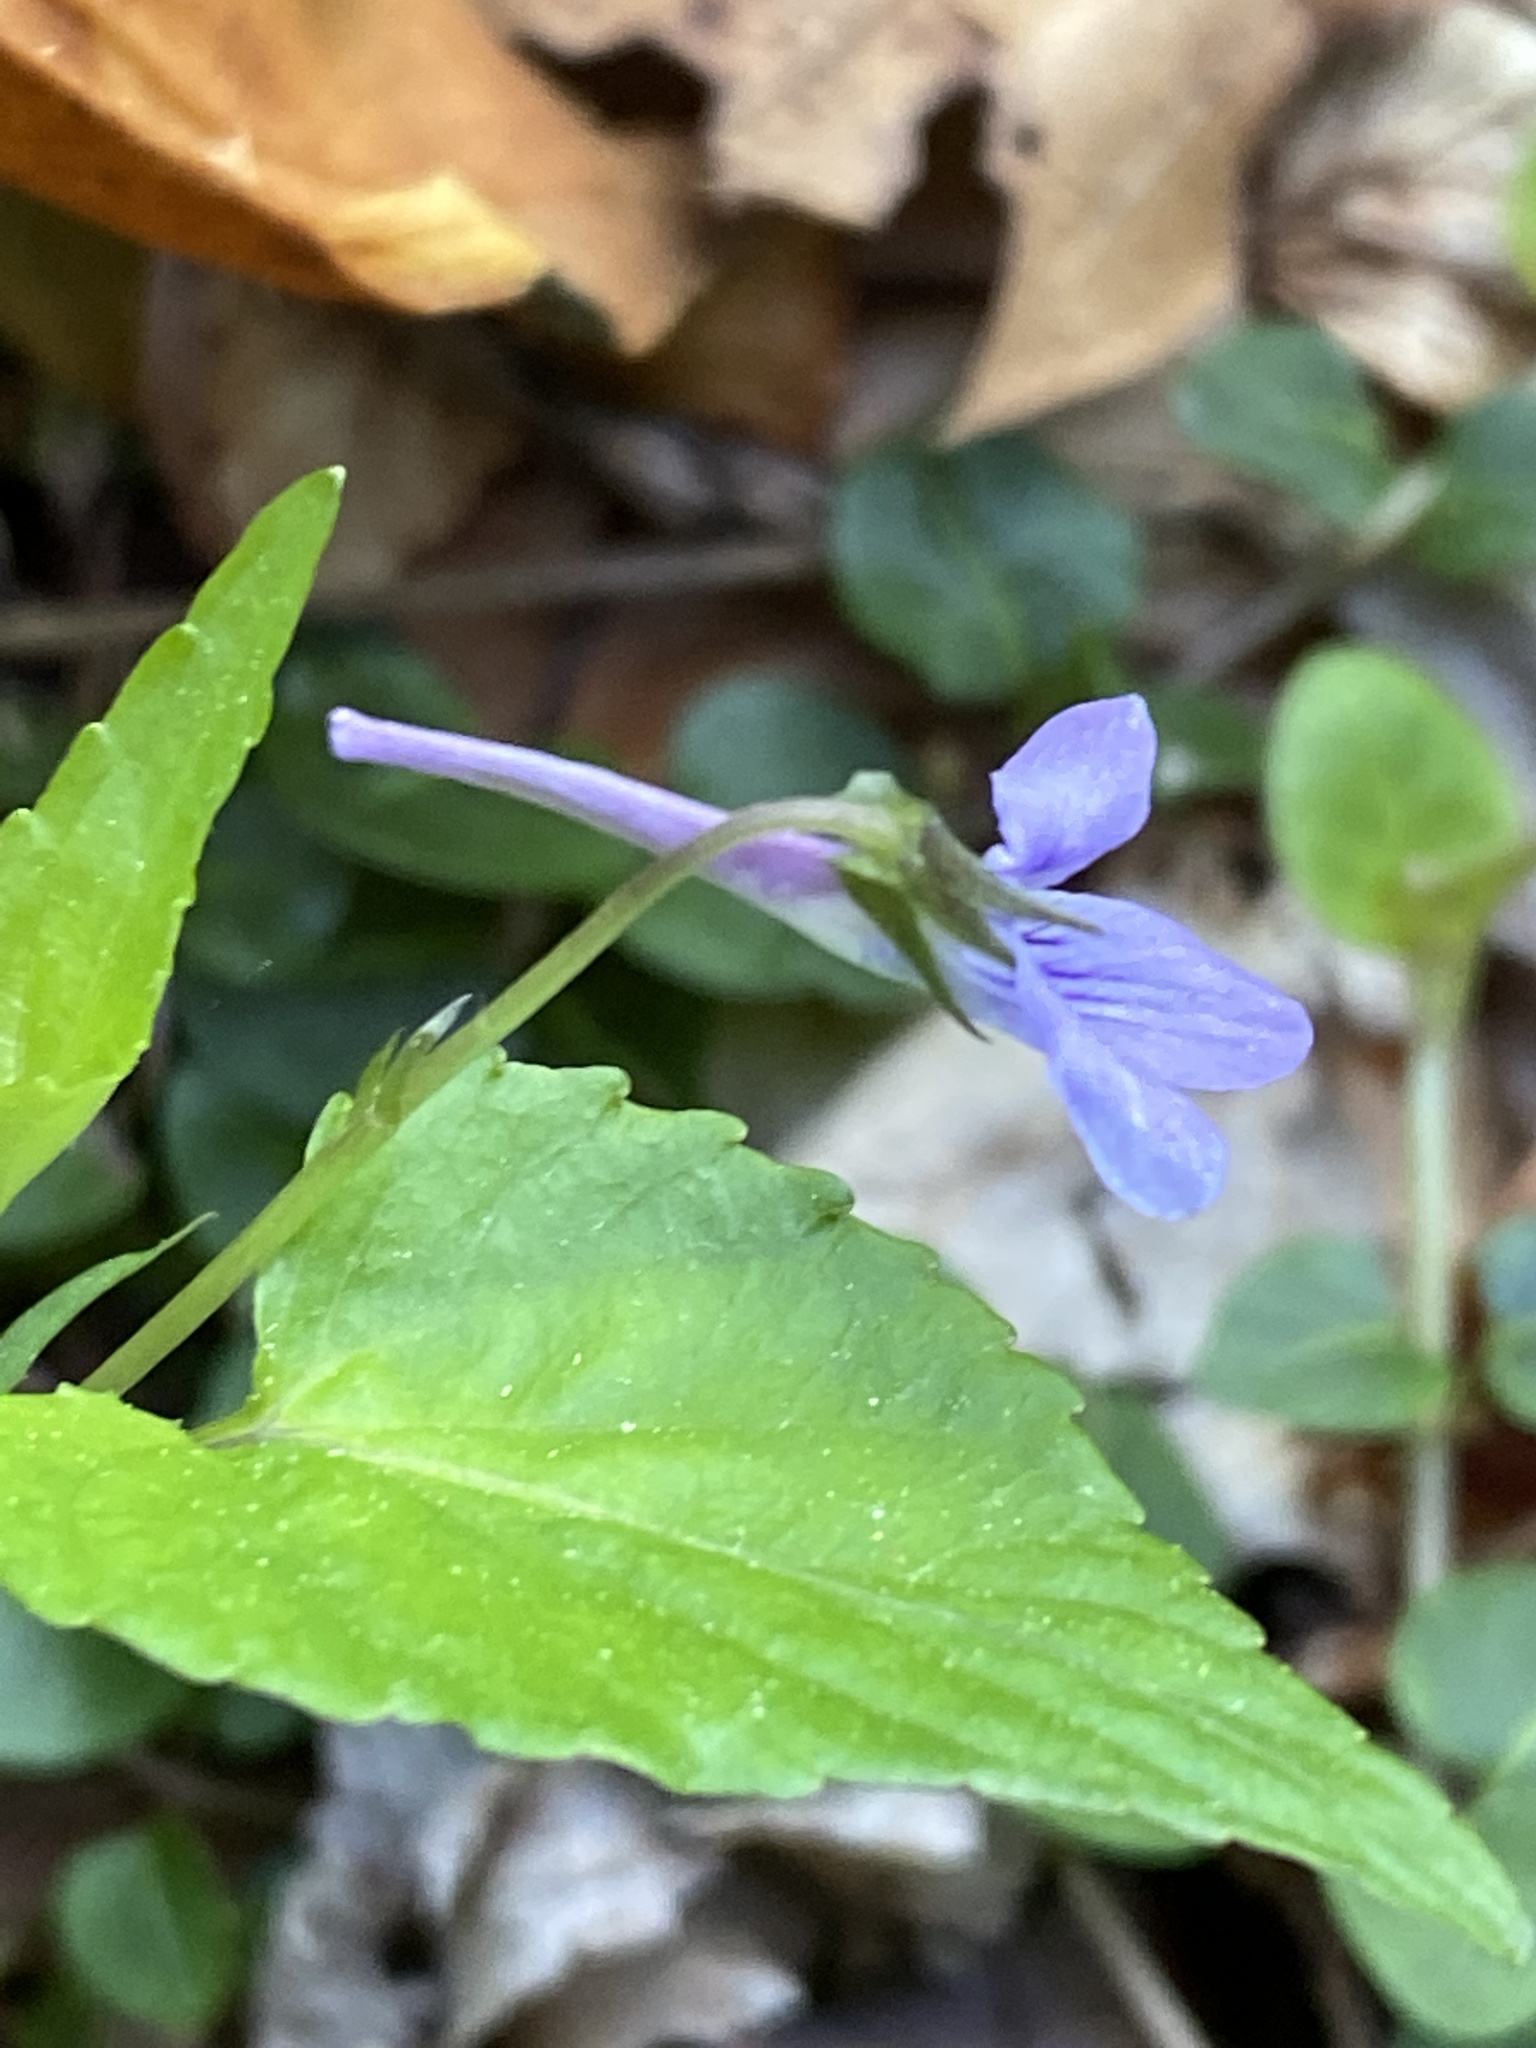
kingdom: Plantae
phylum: Tracheophyta
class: Magnoliopsida
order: Malpighiales
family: Violaceae
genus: Viola
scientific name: Viola rostrata
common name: Long-spur violet
